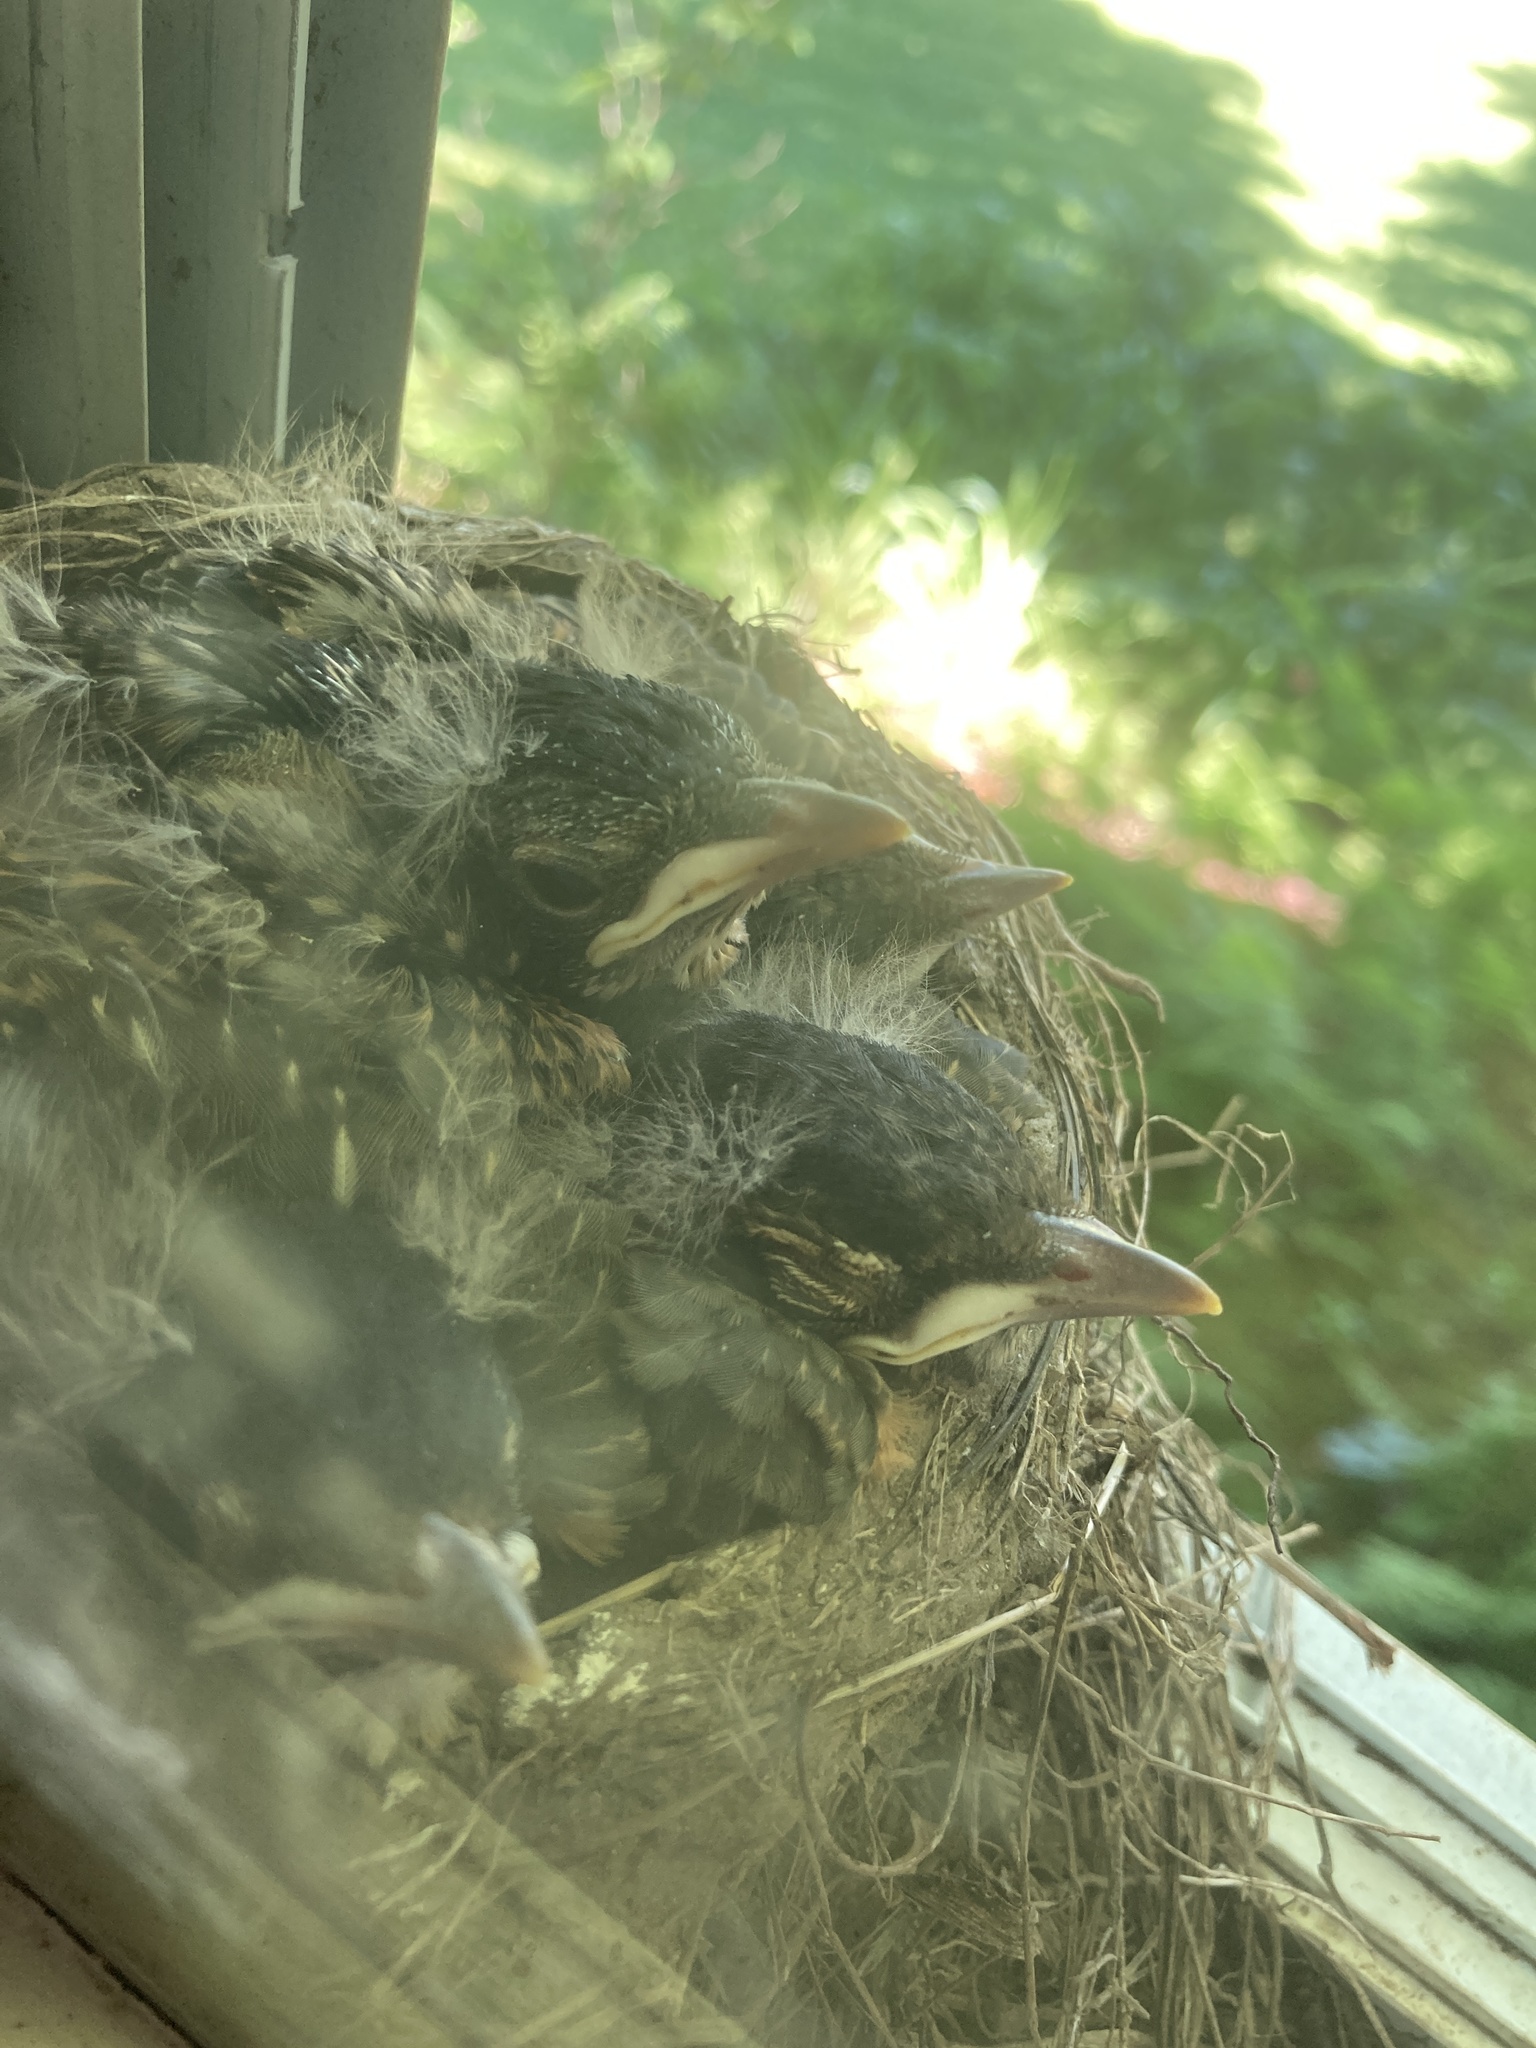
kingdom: Animalia
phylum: Chordata
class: Aves
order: Passeriformes
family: Turdidae
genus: Turdus
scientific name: Turdus migratorius
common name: American robin
